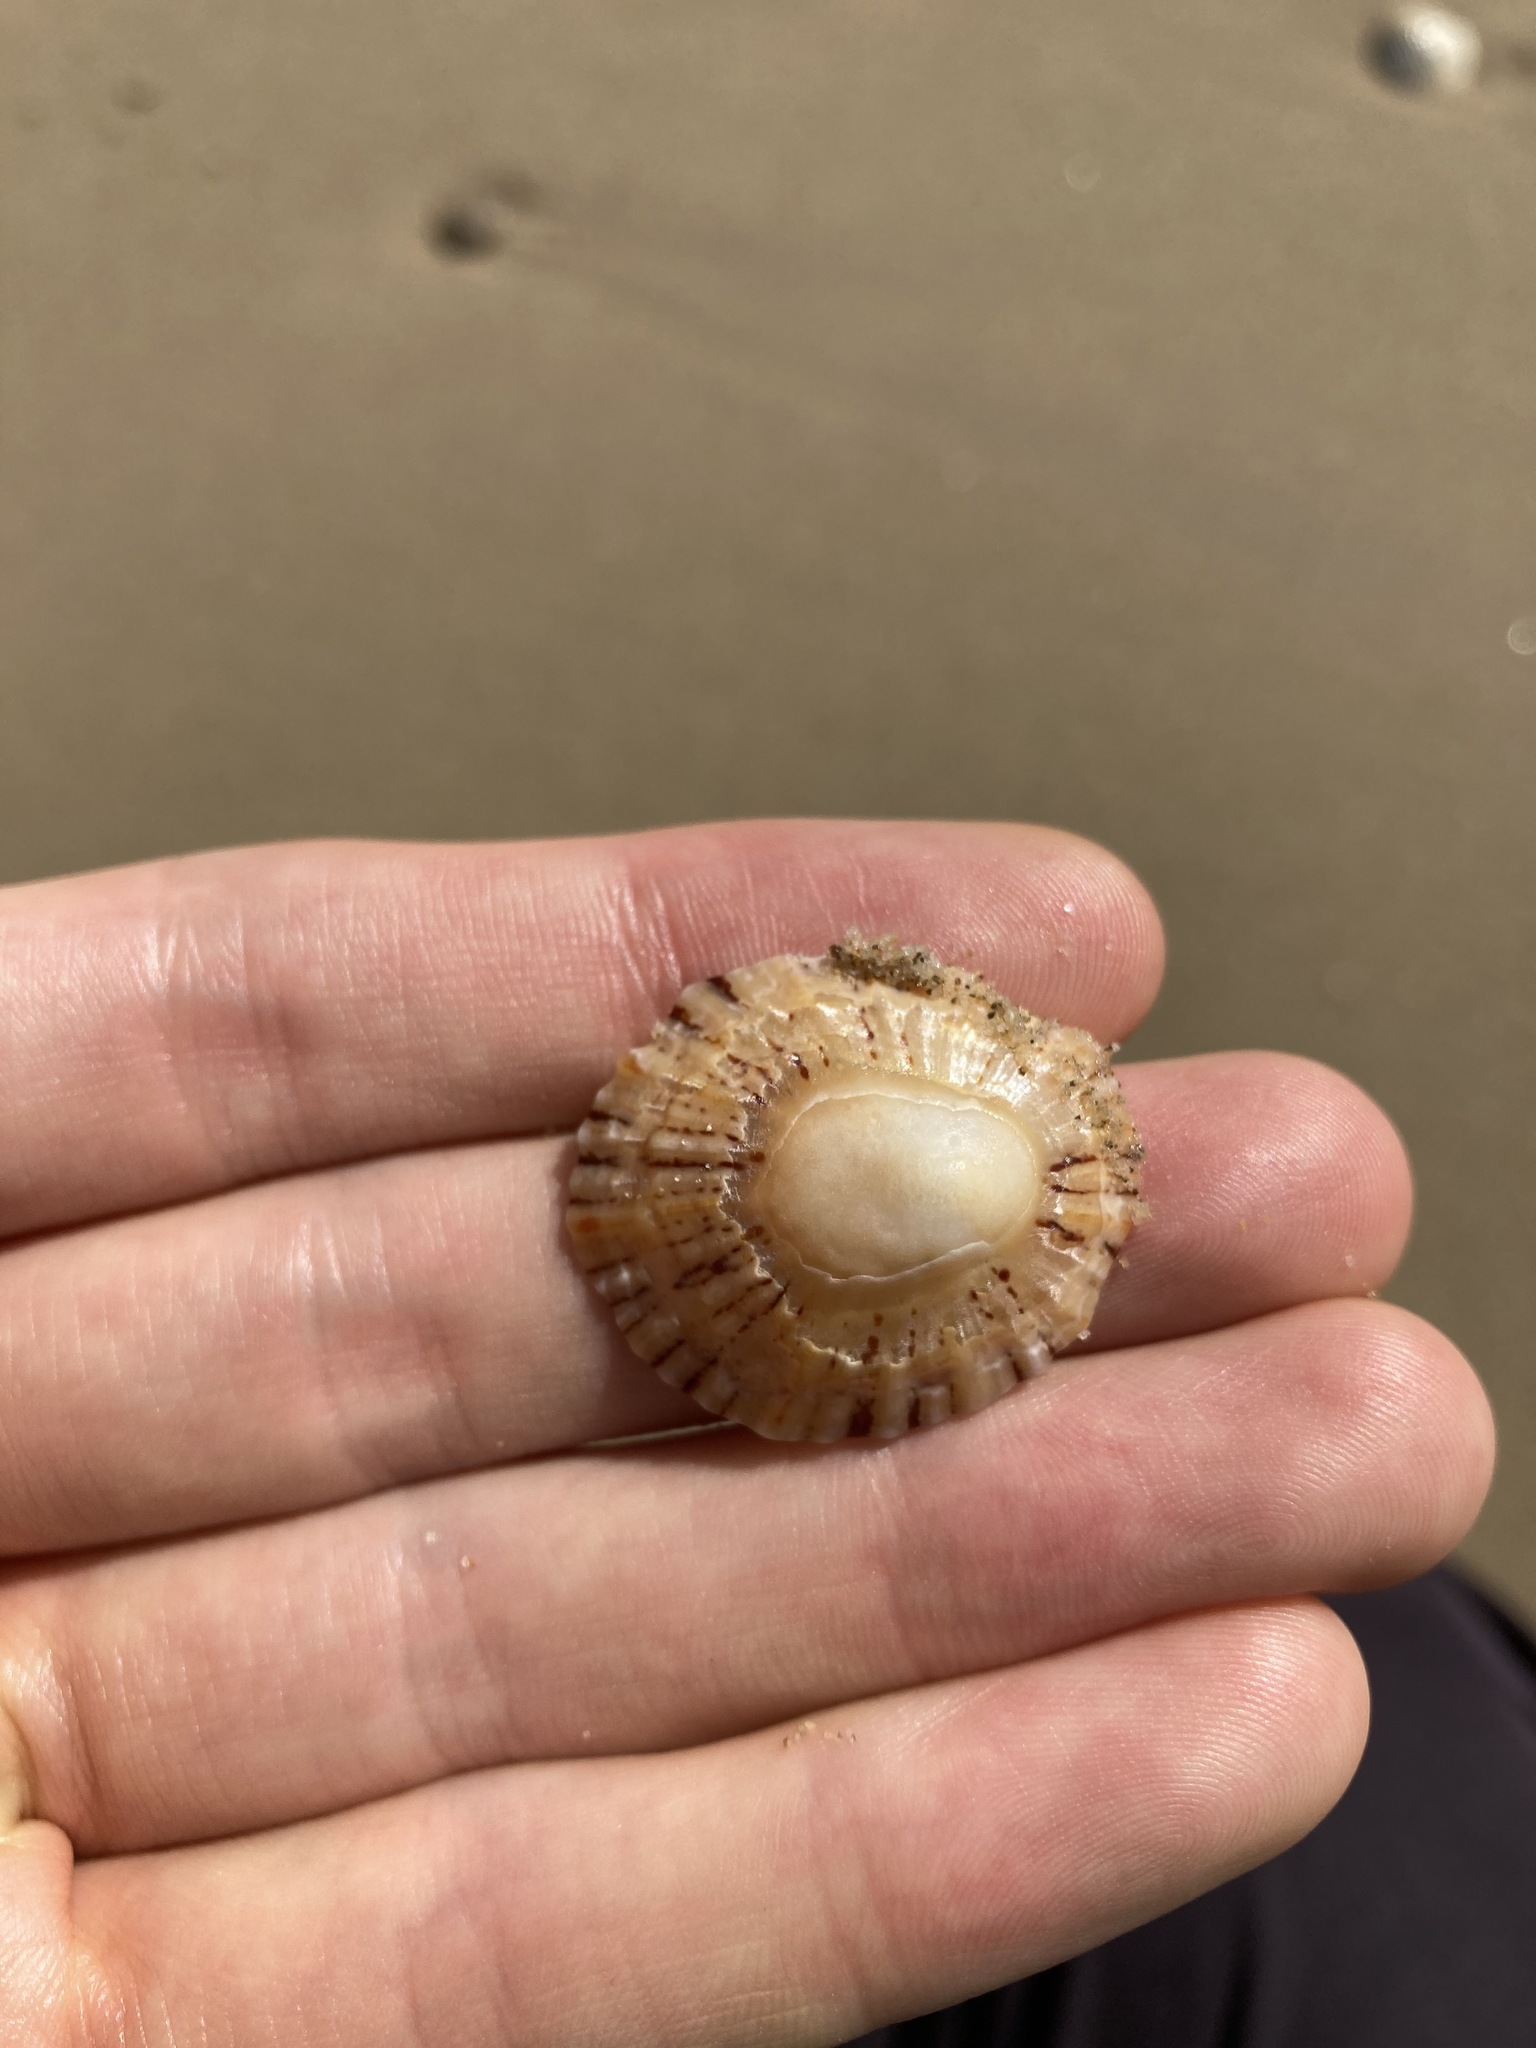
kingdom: Animalia
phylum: Mollusca
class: Gastropoda
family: Nacellidae
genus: Cellana
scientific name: Cellana tramoserica
